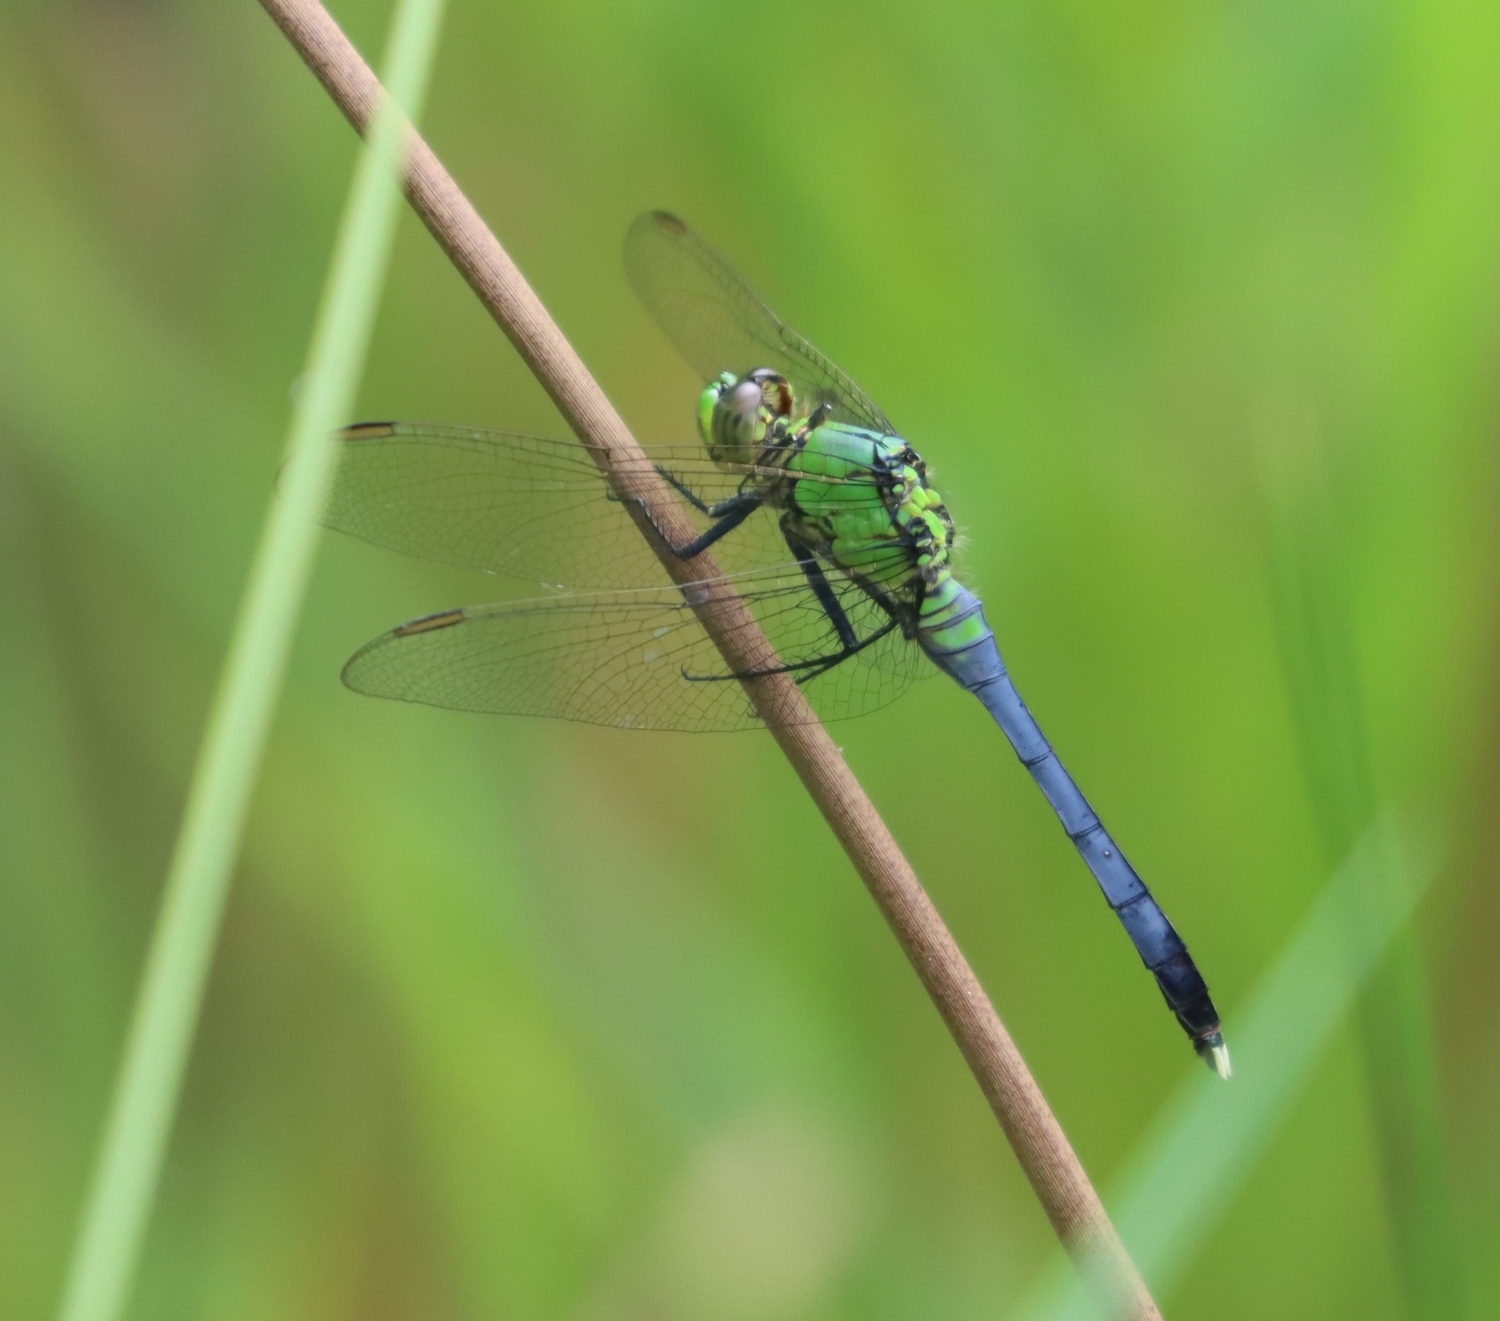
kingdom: Animalia
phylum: Arthropoda
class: Insecta
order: Odonata
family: Libellulidae
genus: Erythemis
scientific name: Erythemis simplicicollis
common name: Eastern pondhawk
